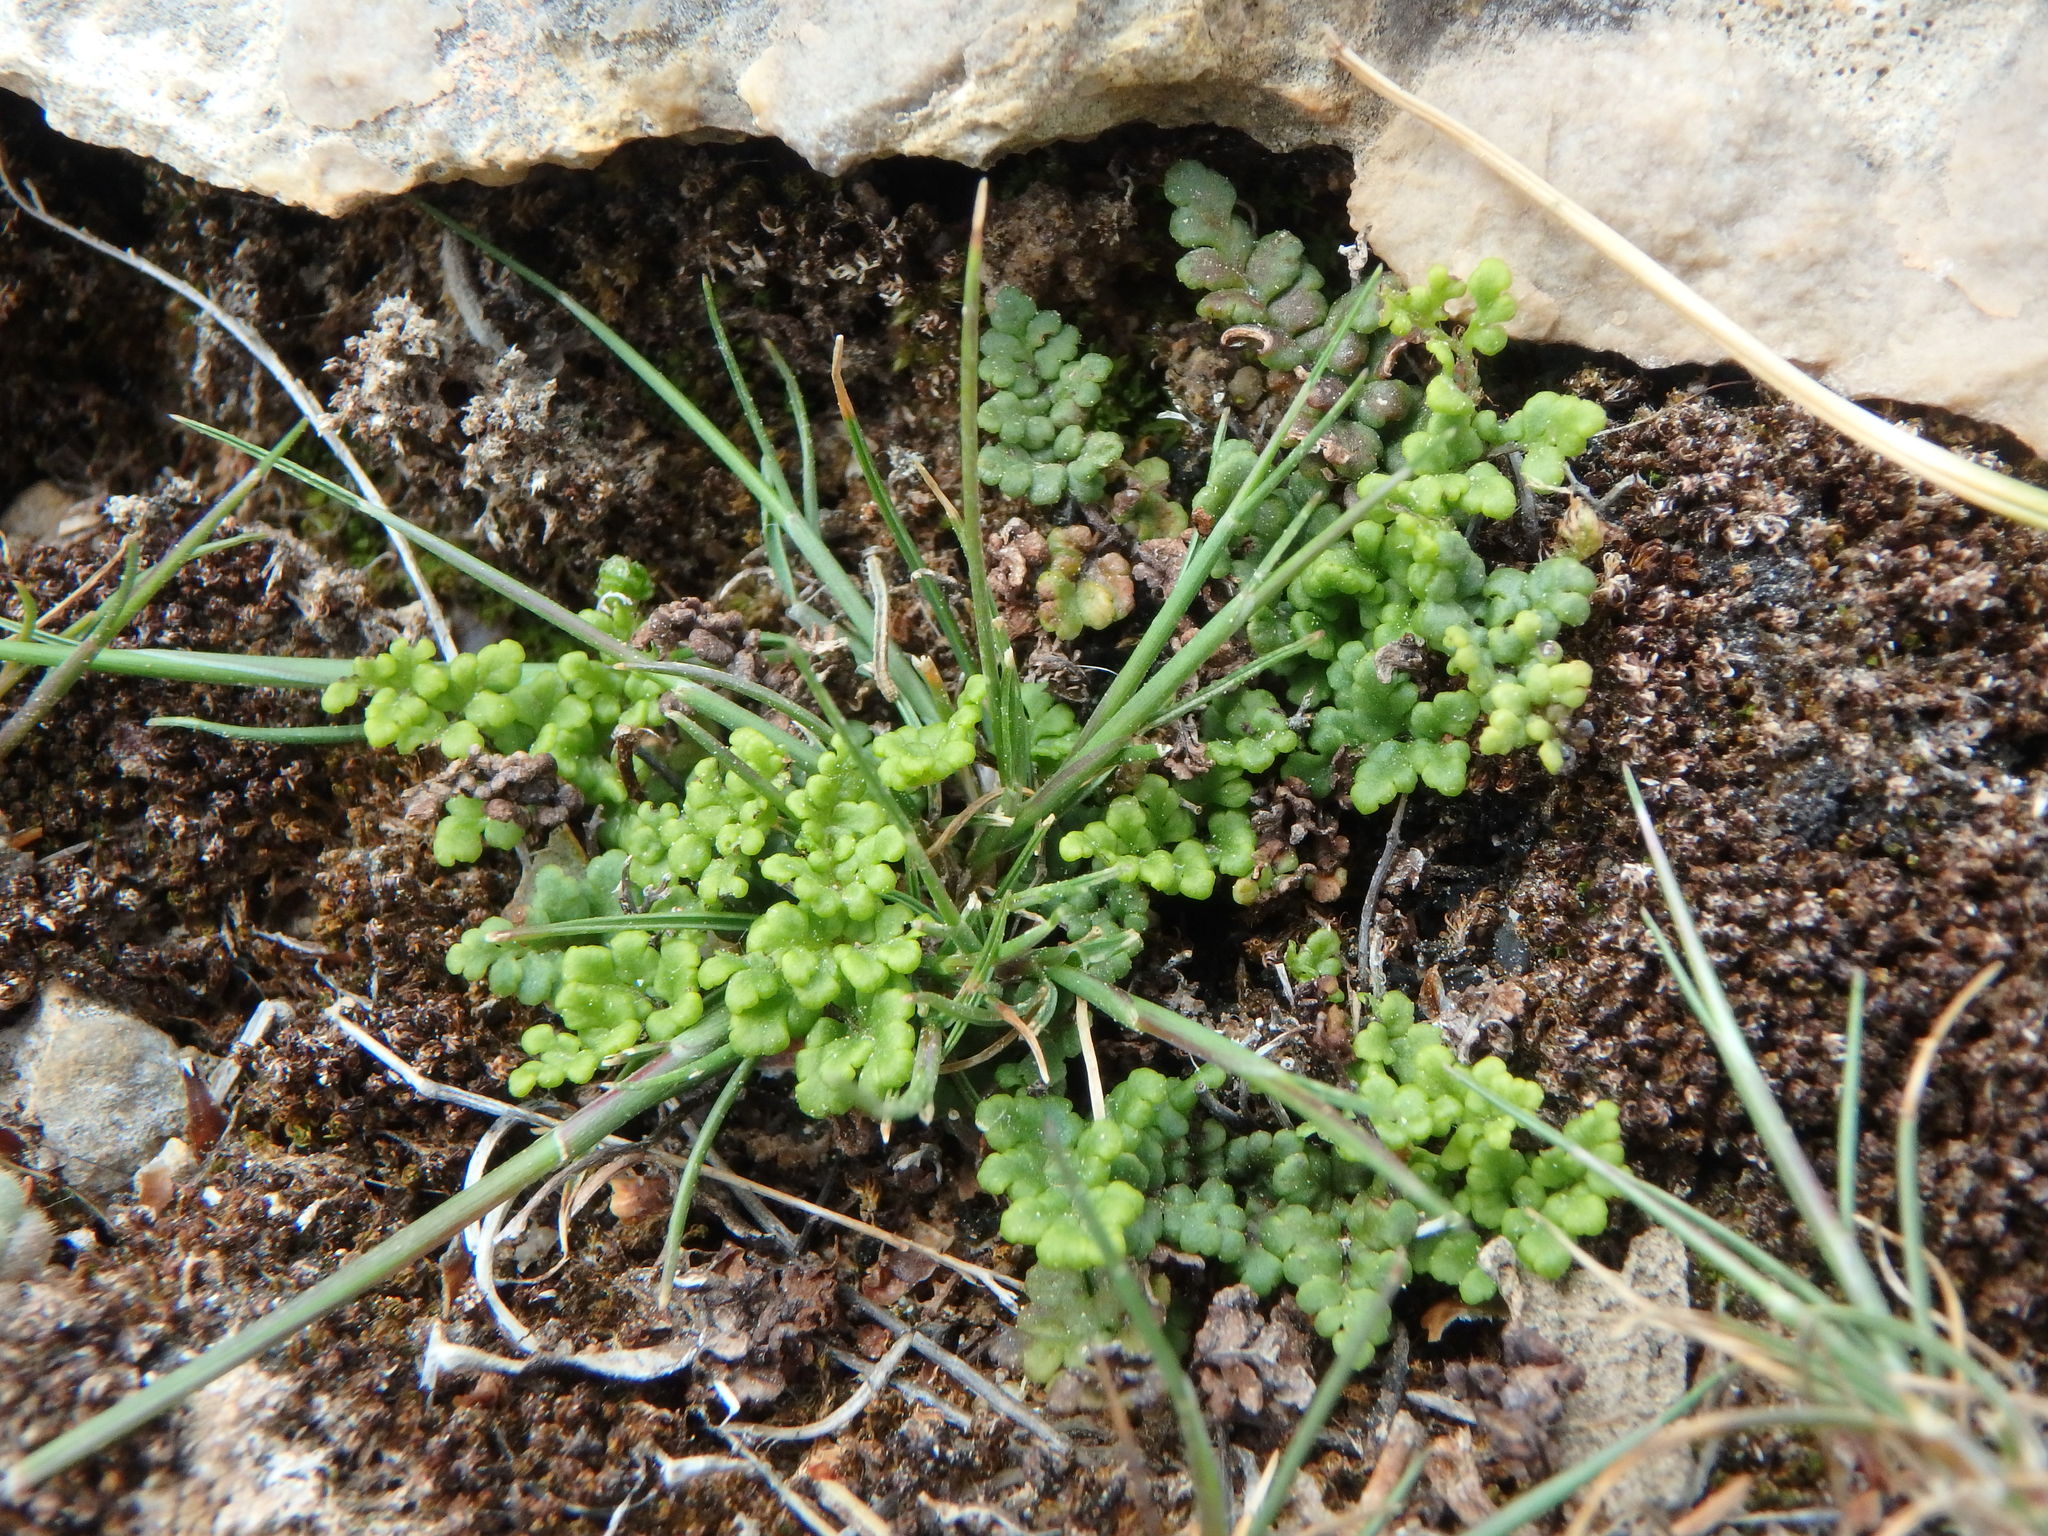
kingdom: Plantae
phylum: Tracheophyta
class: Polypodiopsida
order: Polypodiales
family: Pteridaceae
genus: Oeosporangium
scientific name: Oeosporangium pteridioides
